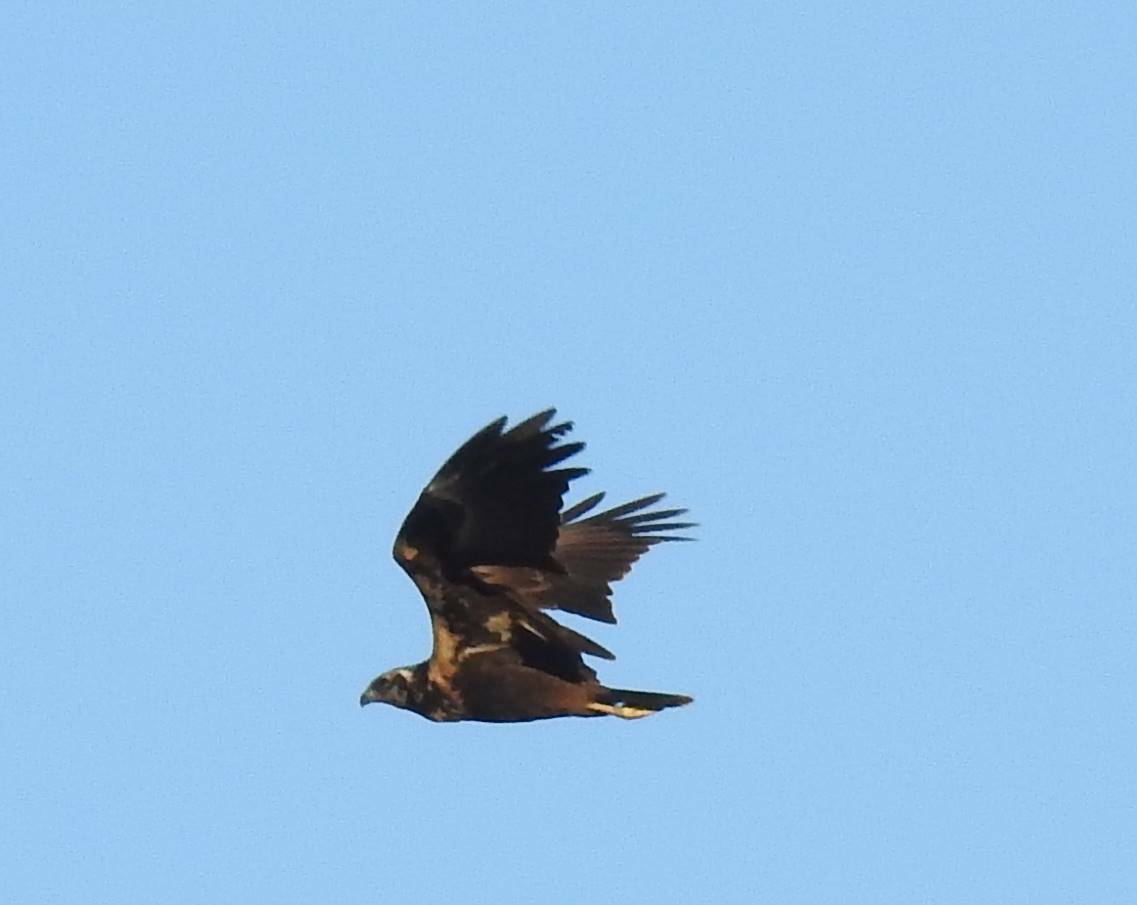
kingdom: Animalia
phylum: Chordata
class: Aves
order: Accipitriformes
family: Accipitridae
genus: Circus
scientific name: Circus aeruginosus
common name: Western marsh harrier
